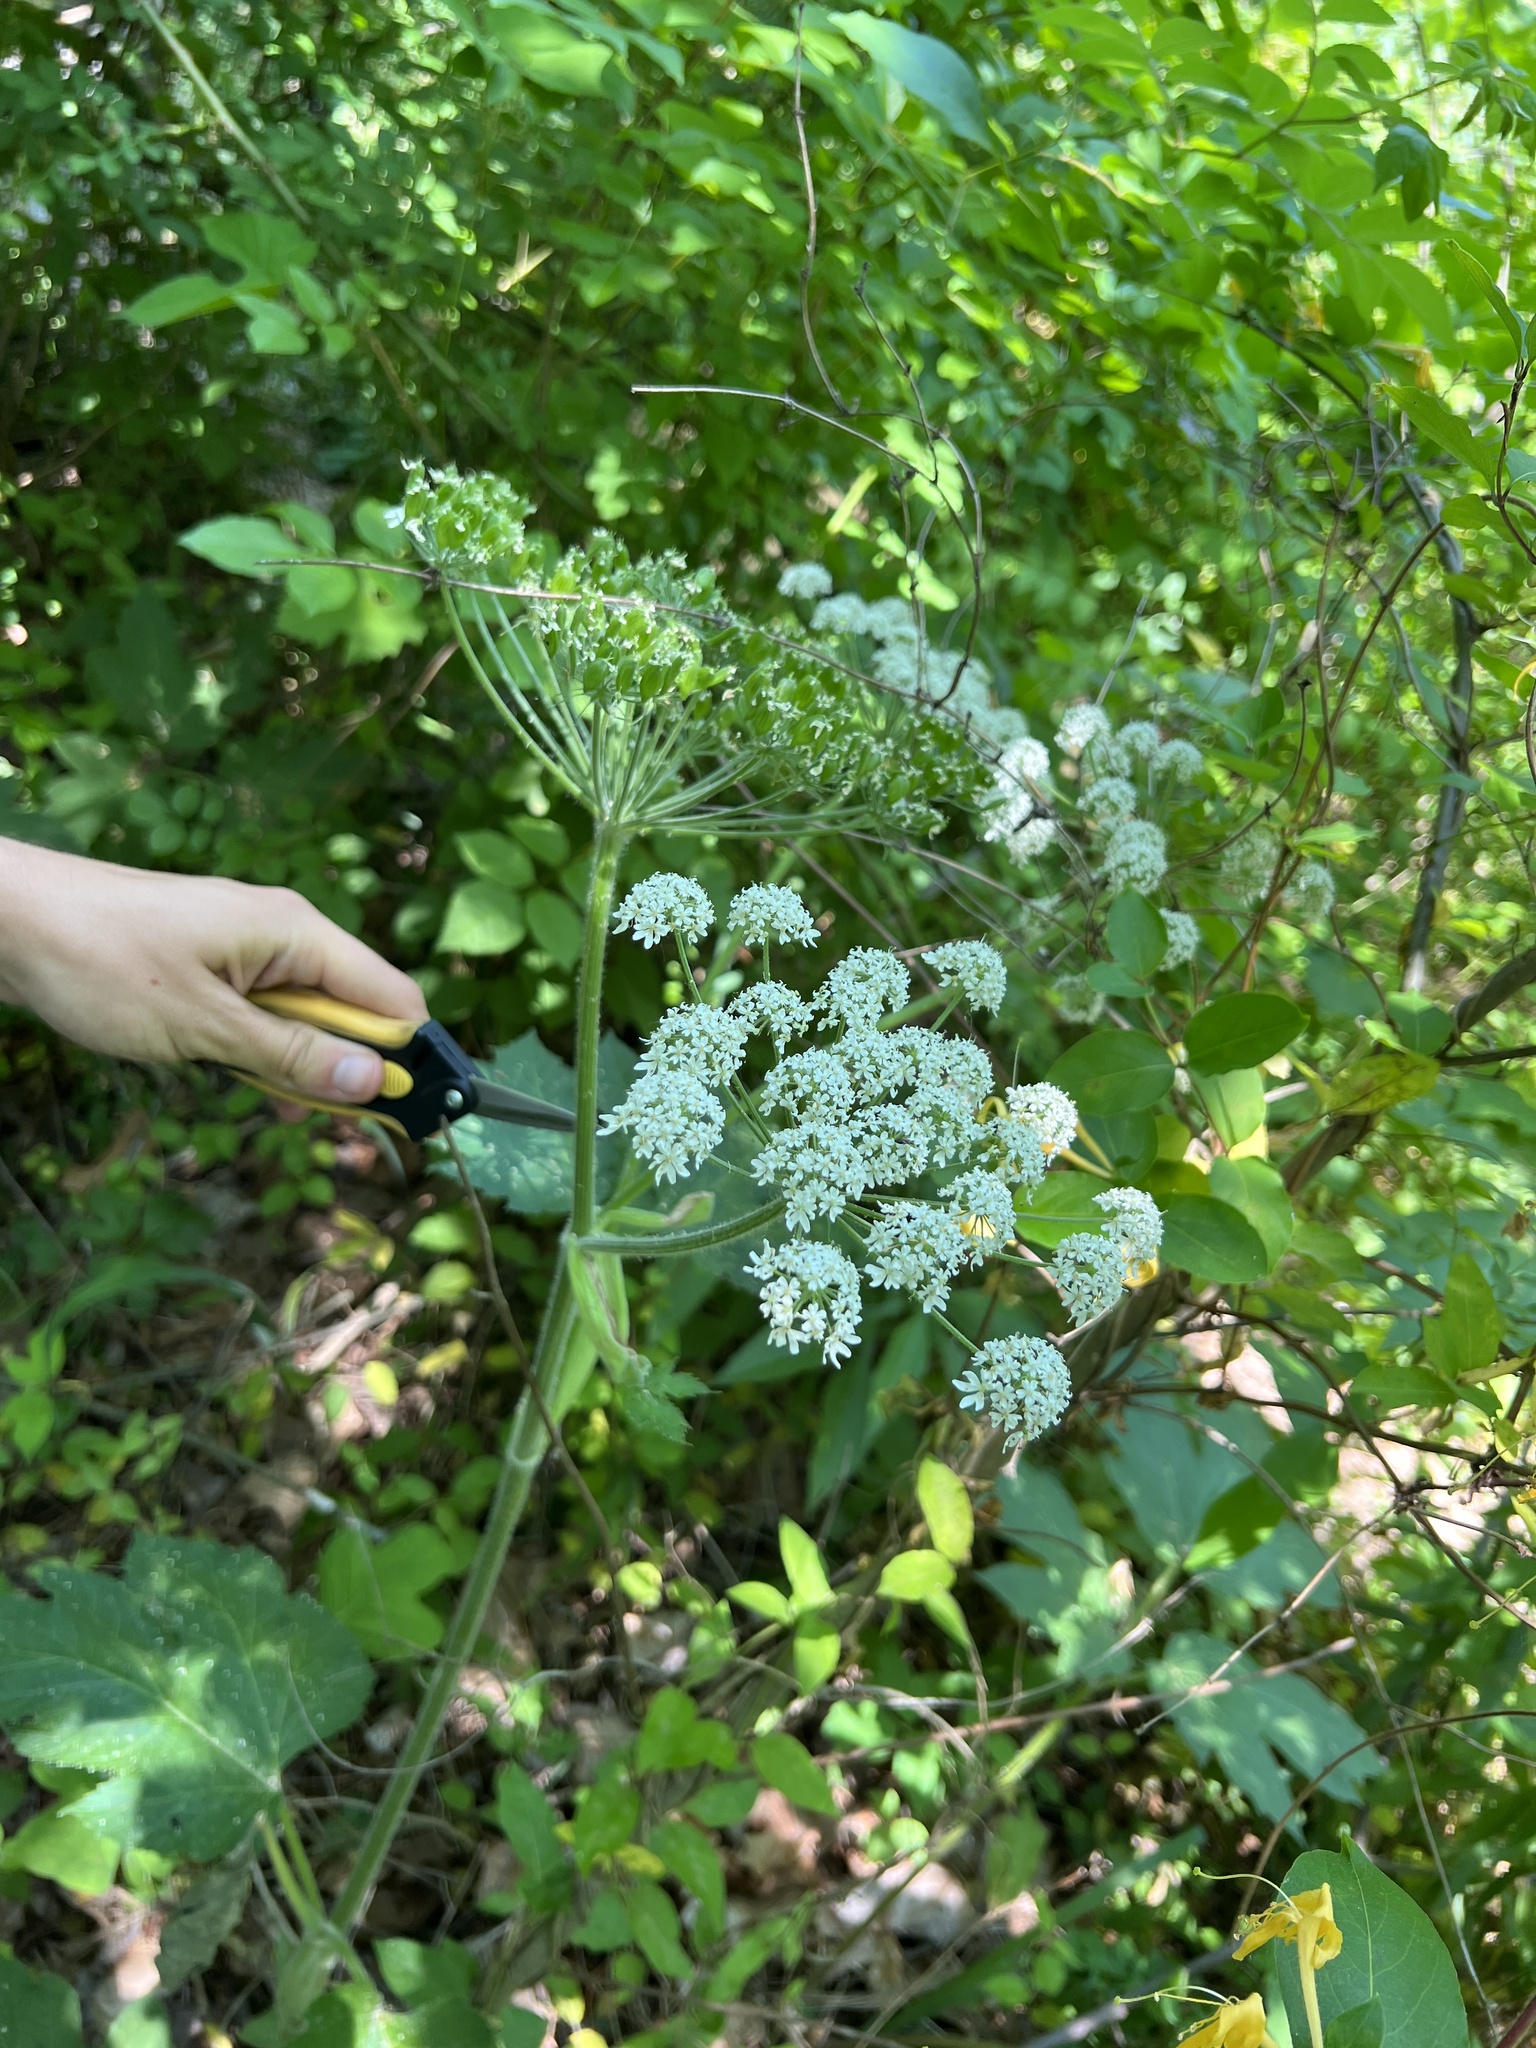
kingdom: Plantae
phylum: Tracheophyta
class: Magnoliopsida
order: Apiales
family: Apiaceae
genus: Heracleum
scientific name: Heracleum maximum
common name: American cow parsnip
